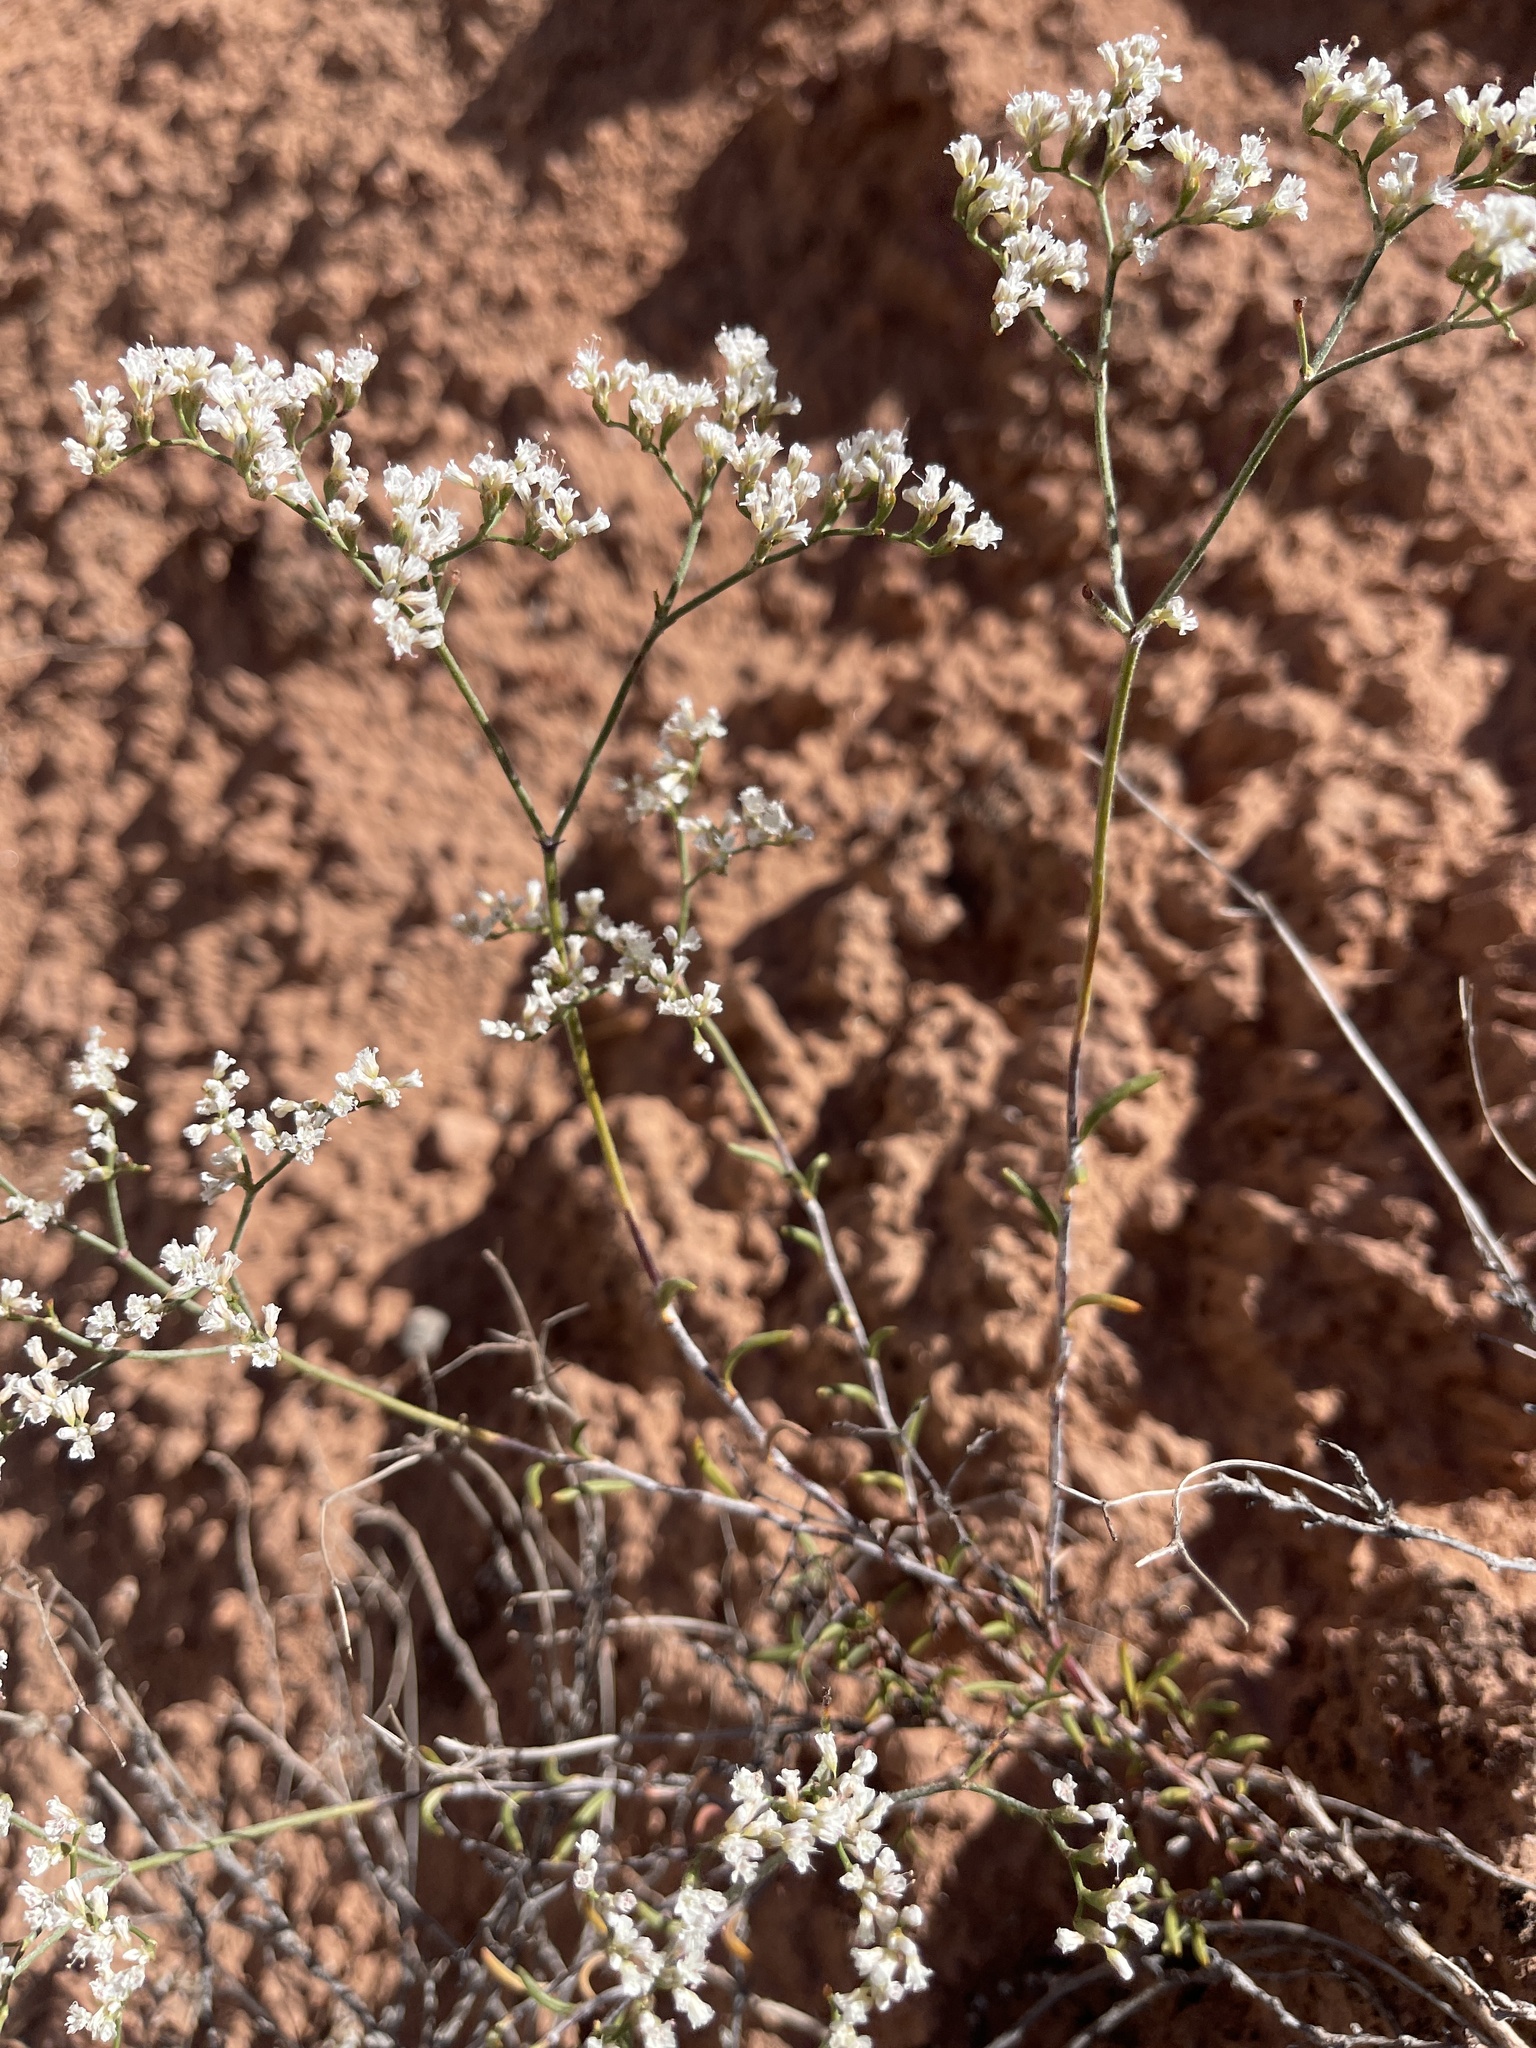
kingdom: Plantae
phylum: Tracheophyta
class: Magnoliopsida
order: Caryophyllales
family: Polygonaceae
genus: Eriogonum
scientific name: Eriogonum microtheca
